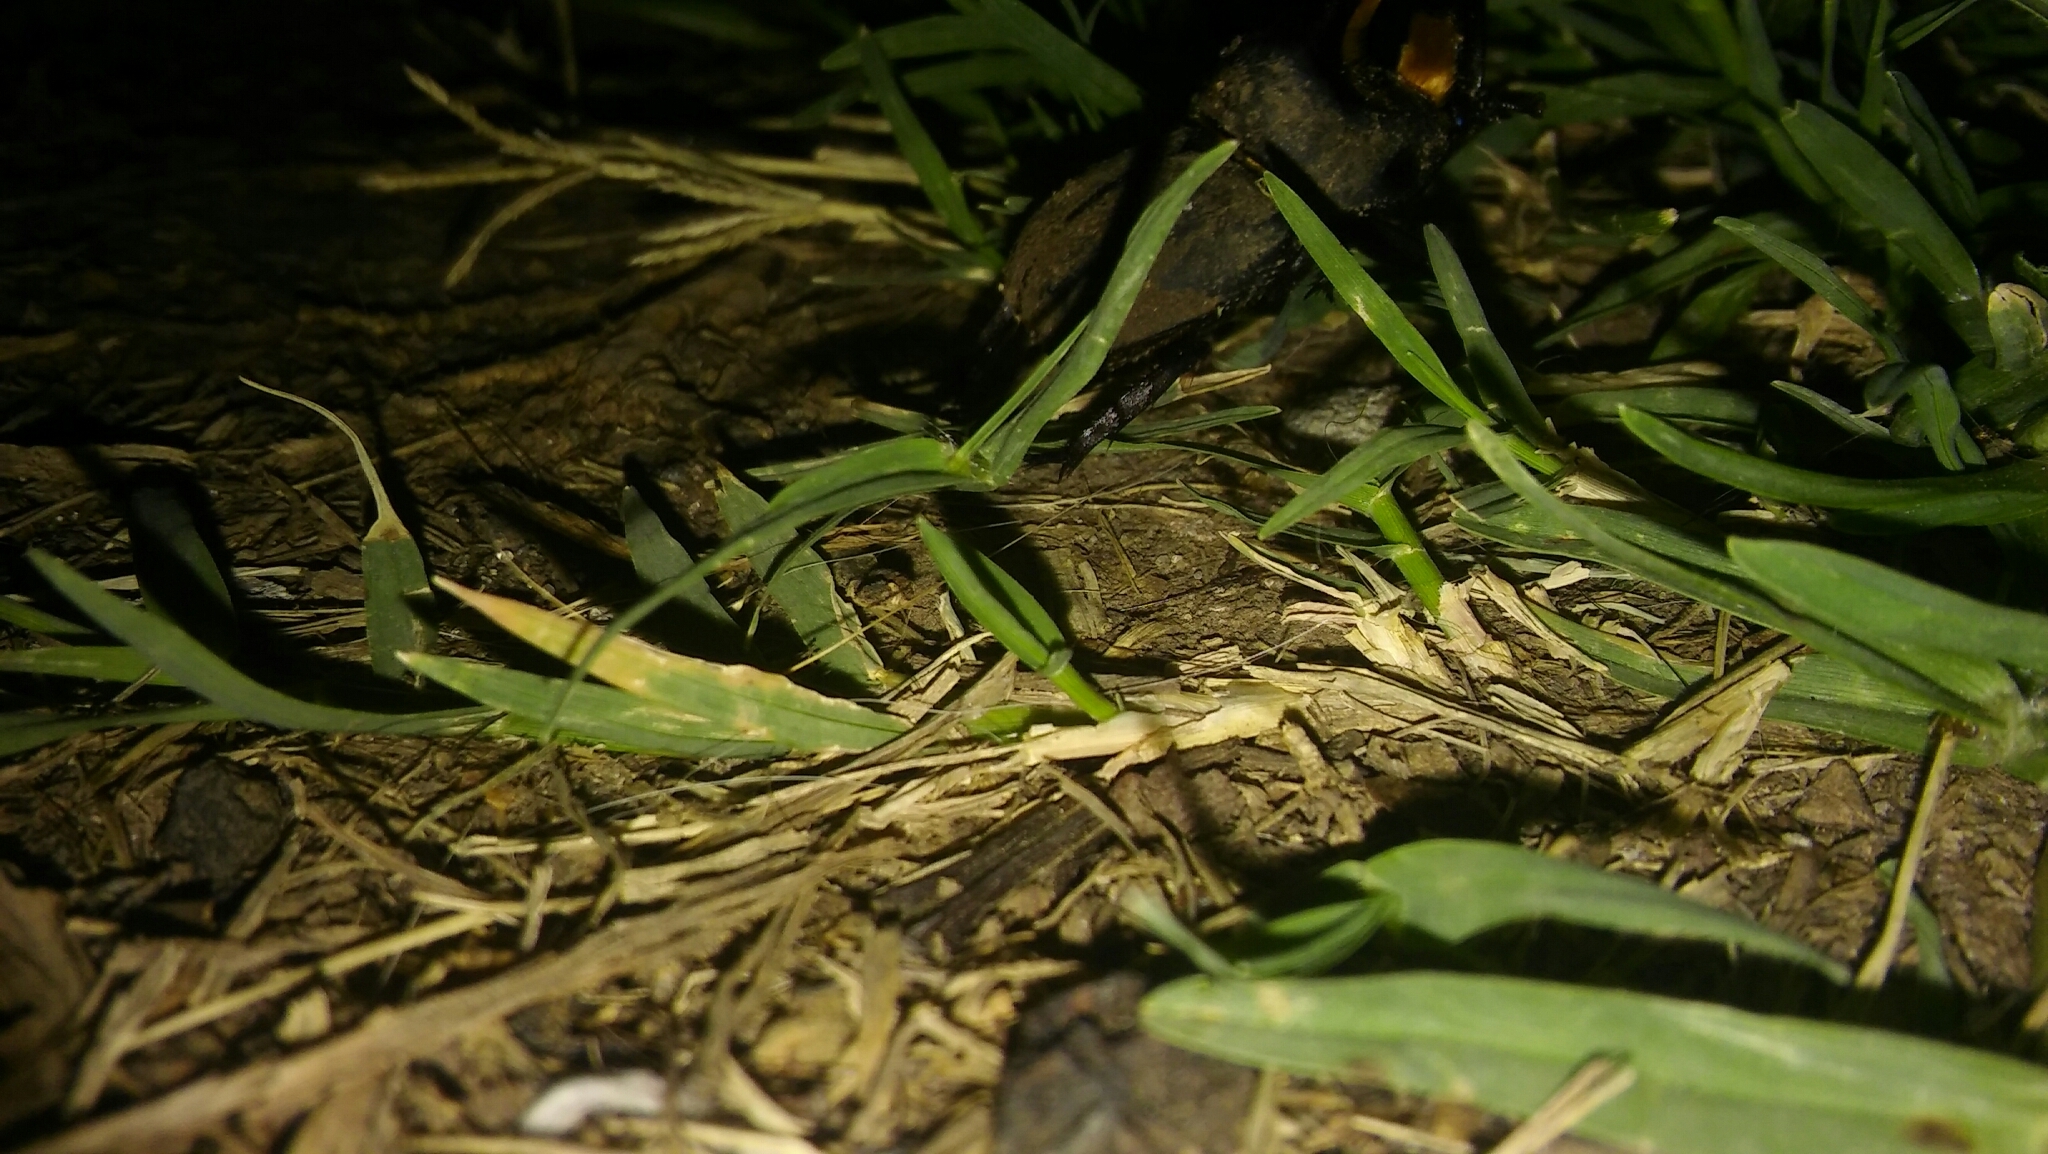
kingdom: Animalia
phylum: Arthropoda
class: Insecta
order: Coleoptera
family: Scarabaeidae
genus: Diloboderus
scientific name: Diloboderus abderus
